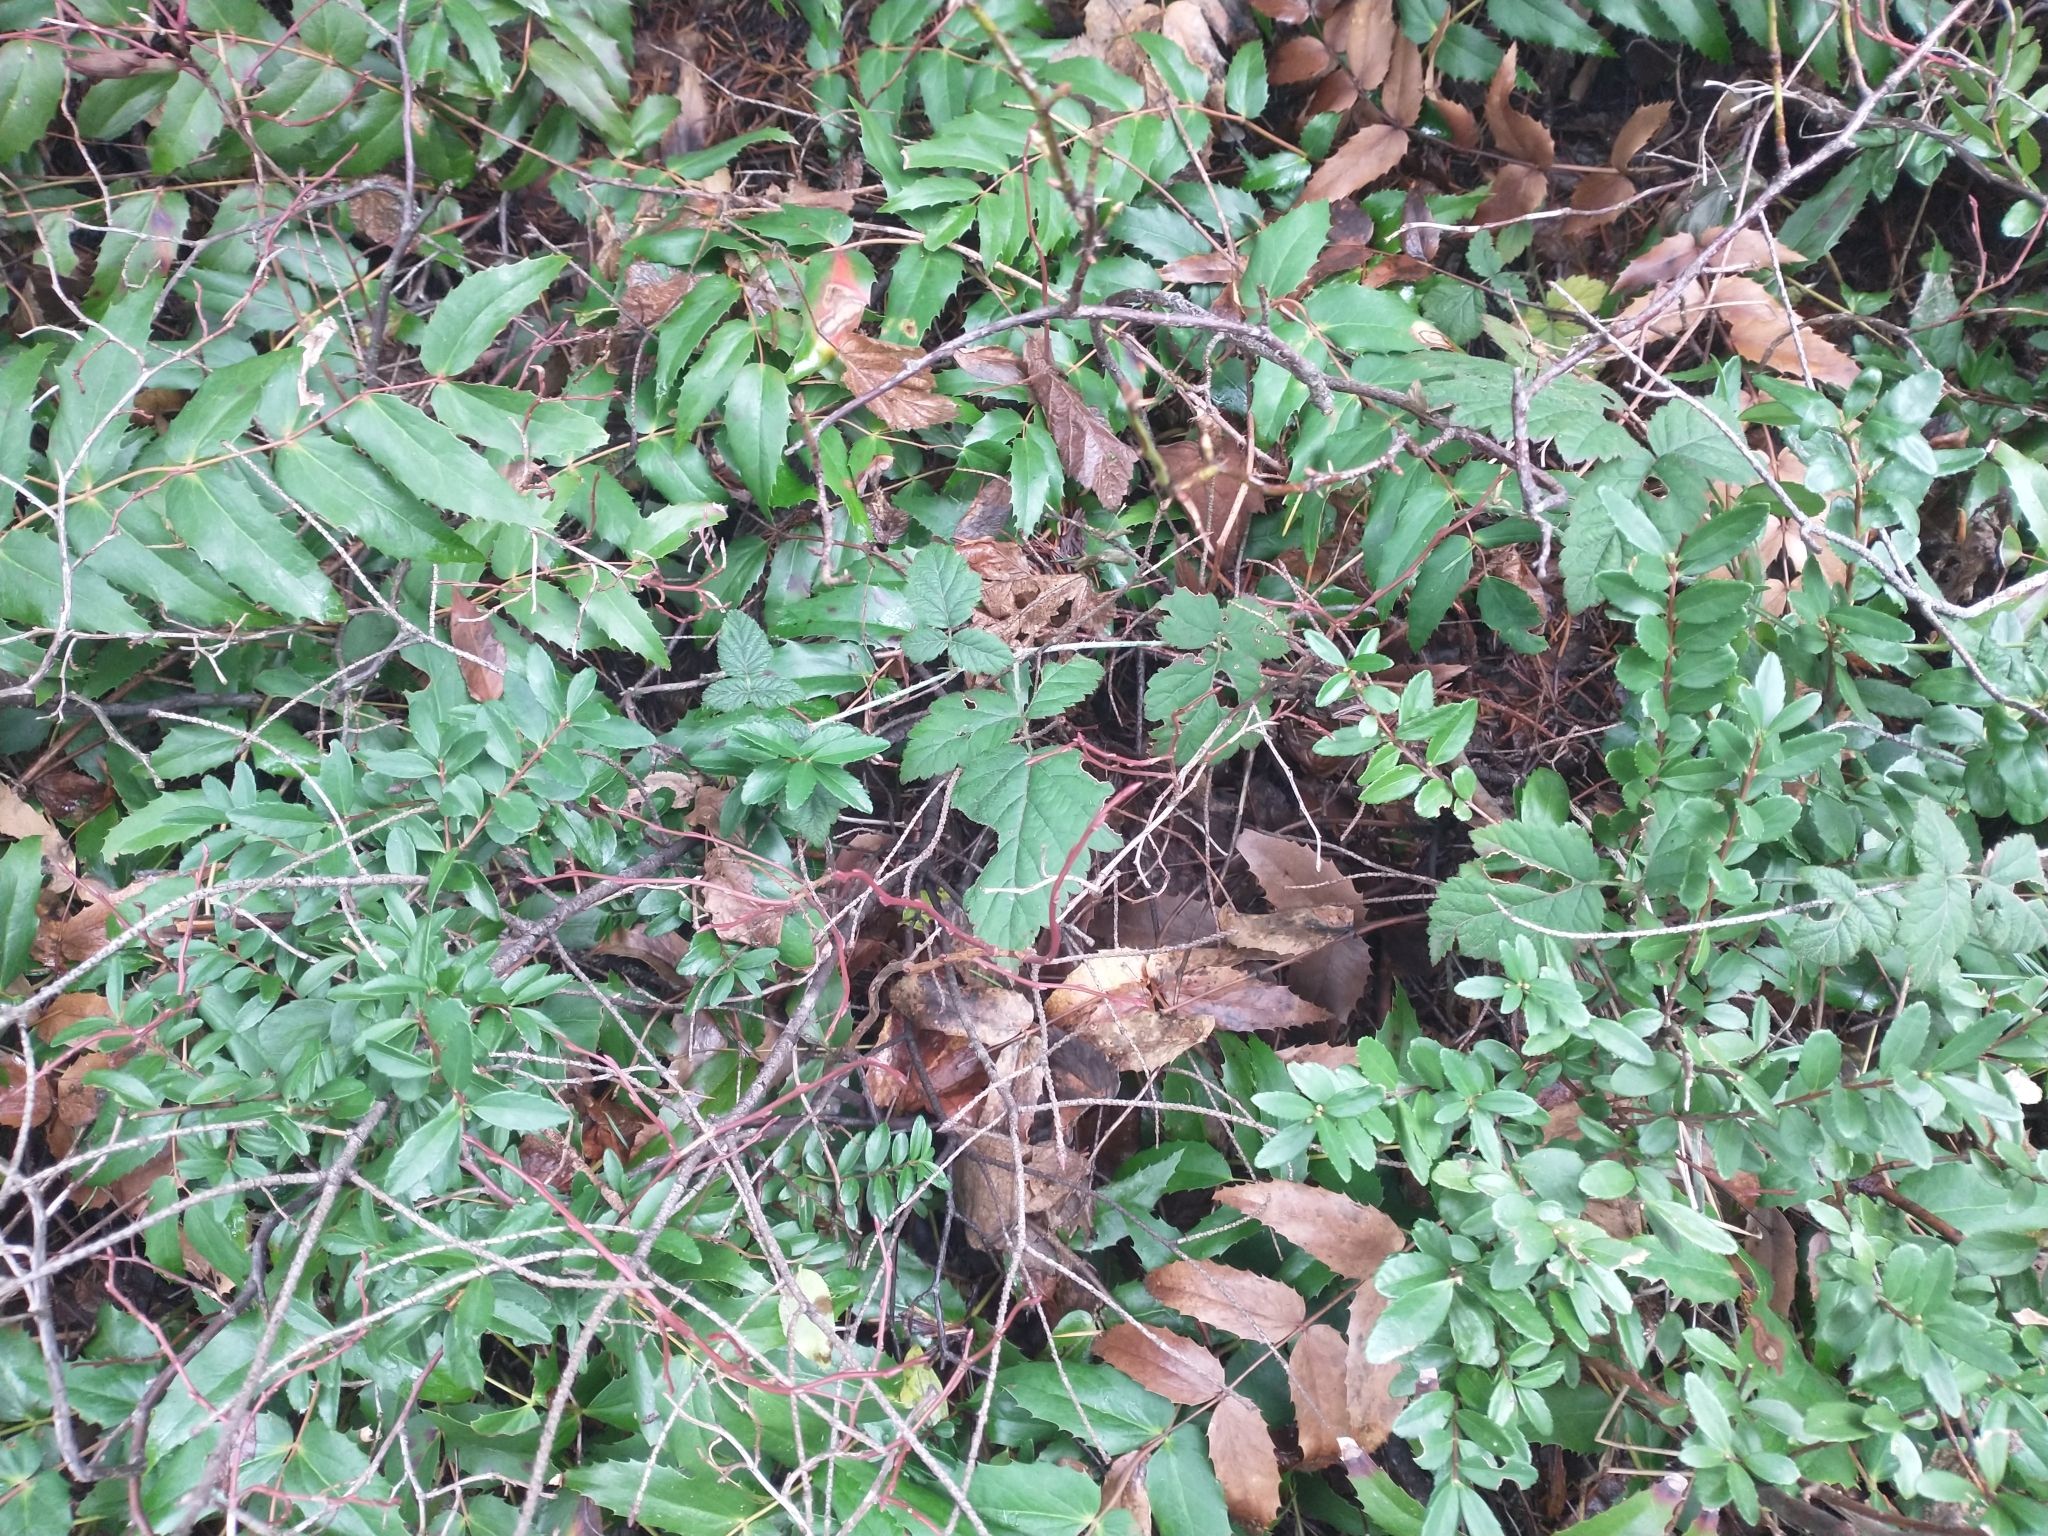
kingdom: Plantae
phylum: Tracheophyta
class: Magnoliopsida
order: Ranunculales
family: Berberidaceae
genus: Mahonia
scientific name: Mahonia nervosa
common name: Cascade oregon-grape
